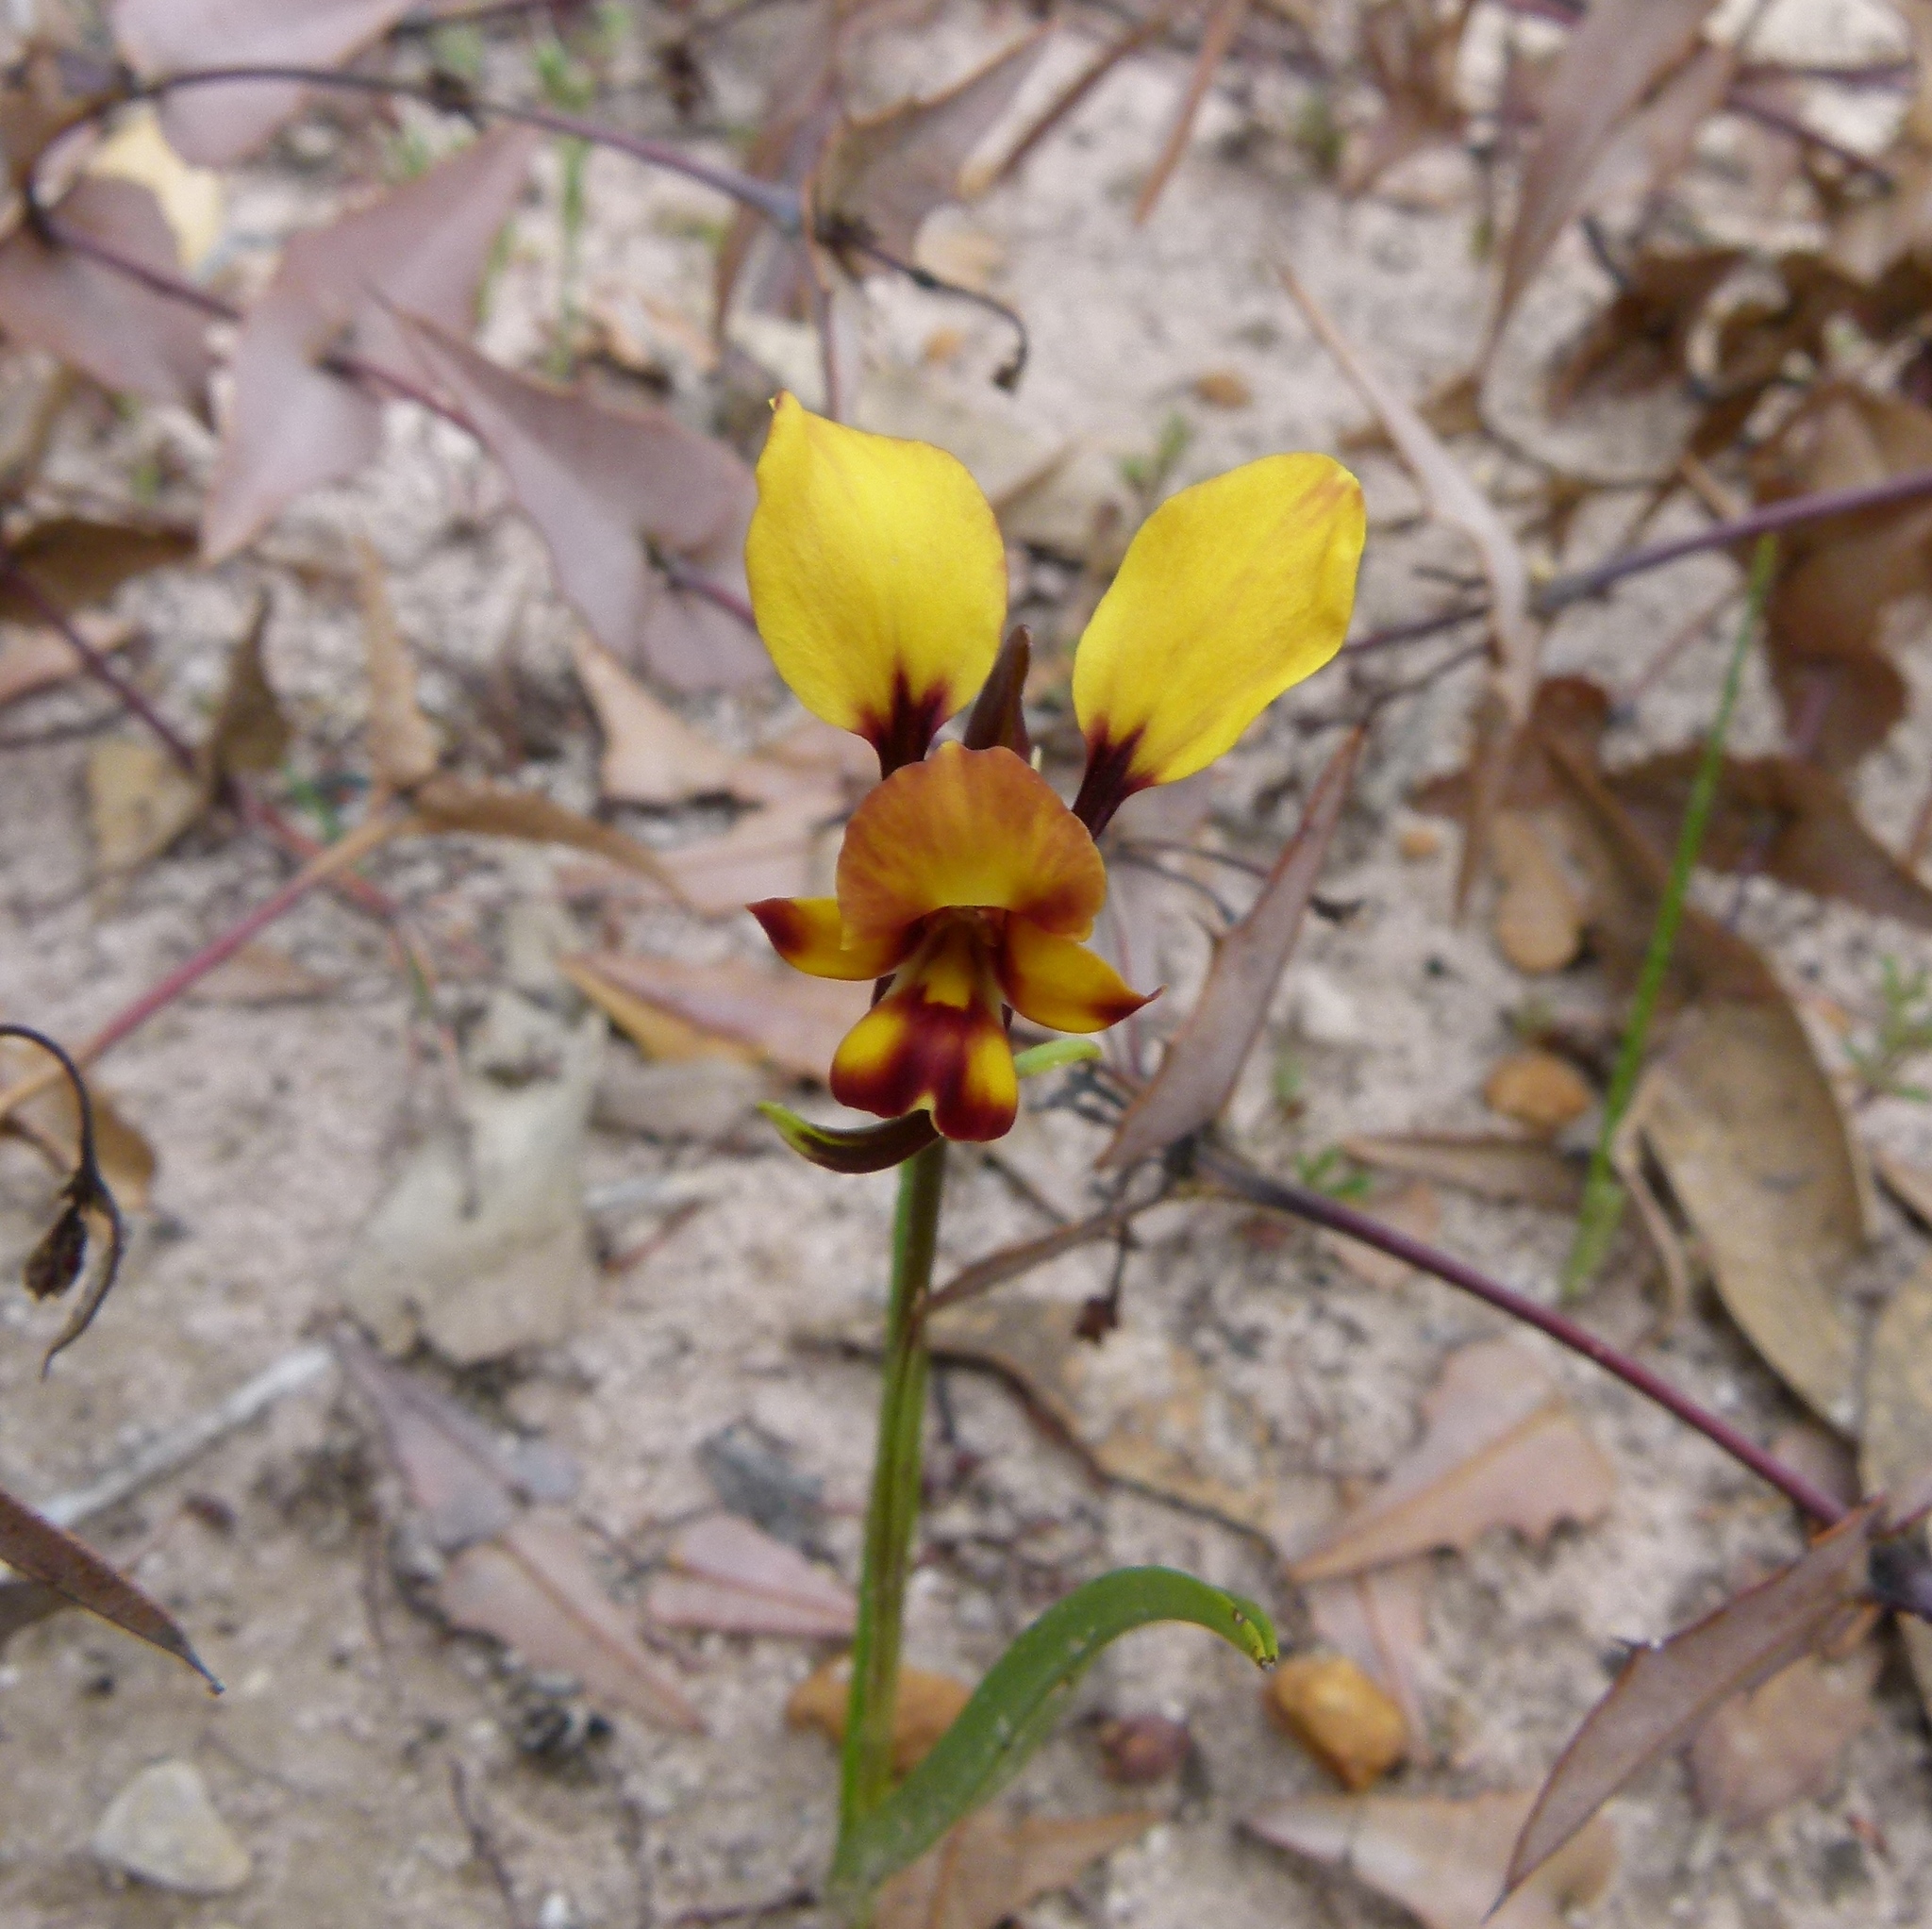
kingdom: Plantae
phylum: Tracheophyta
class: Liliopsida
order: Asparagales
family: Orchidaceae
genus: Diuris
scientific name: Diuris corymbosa
